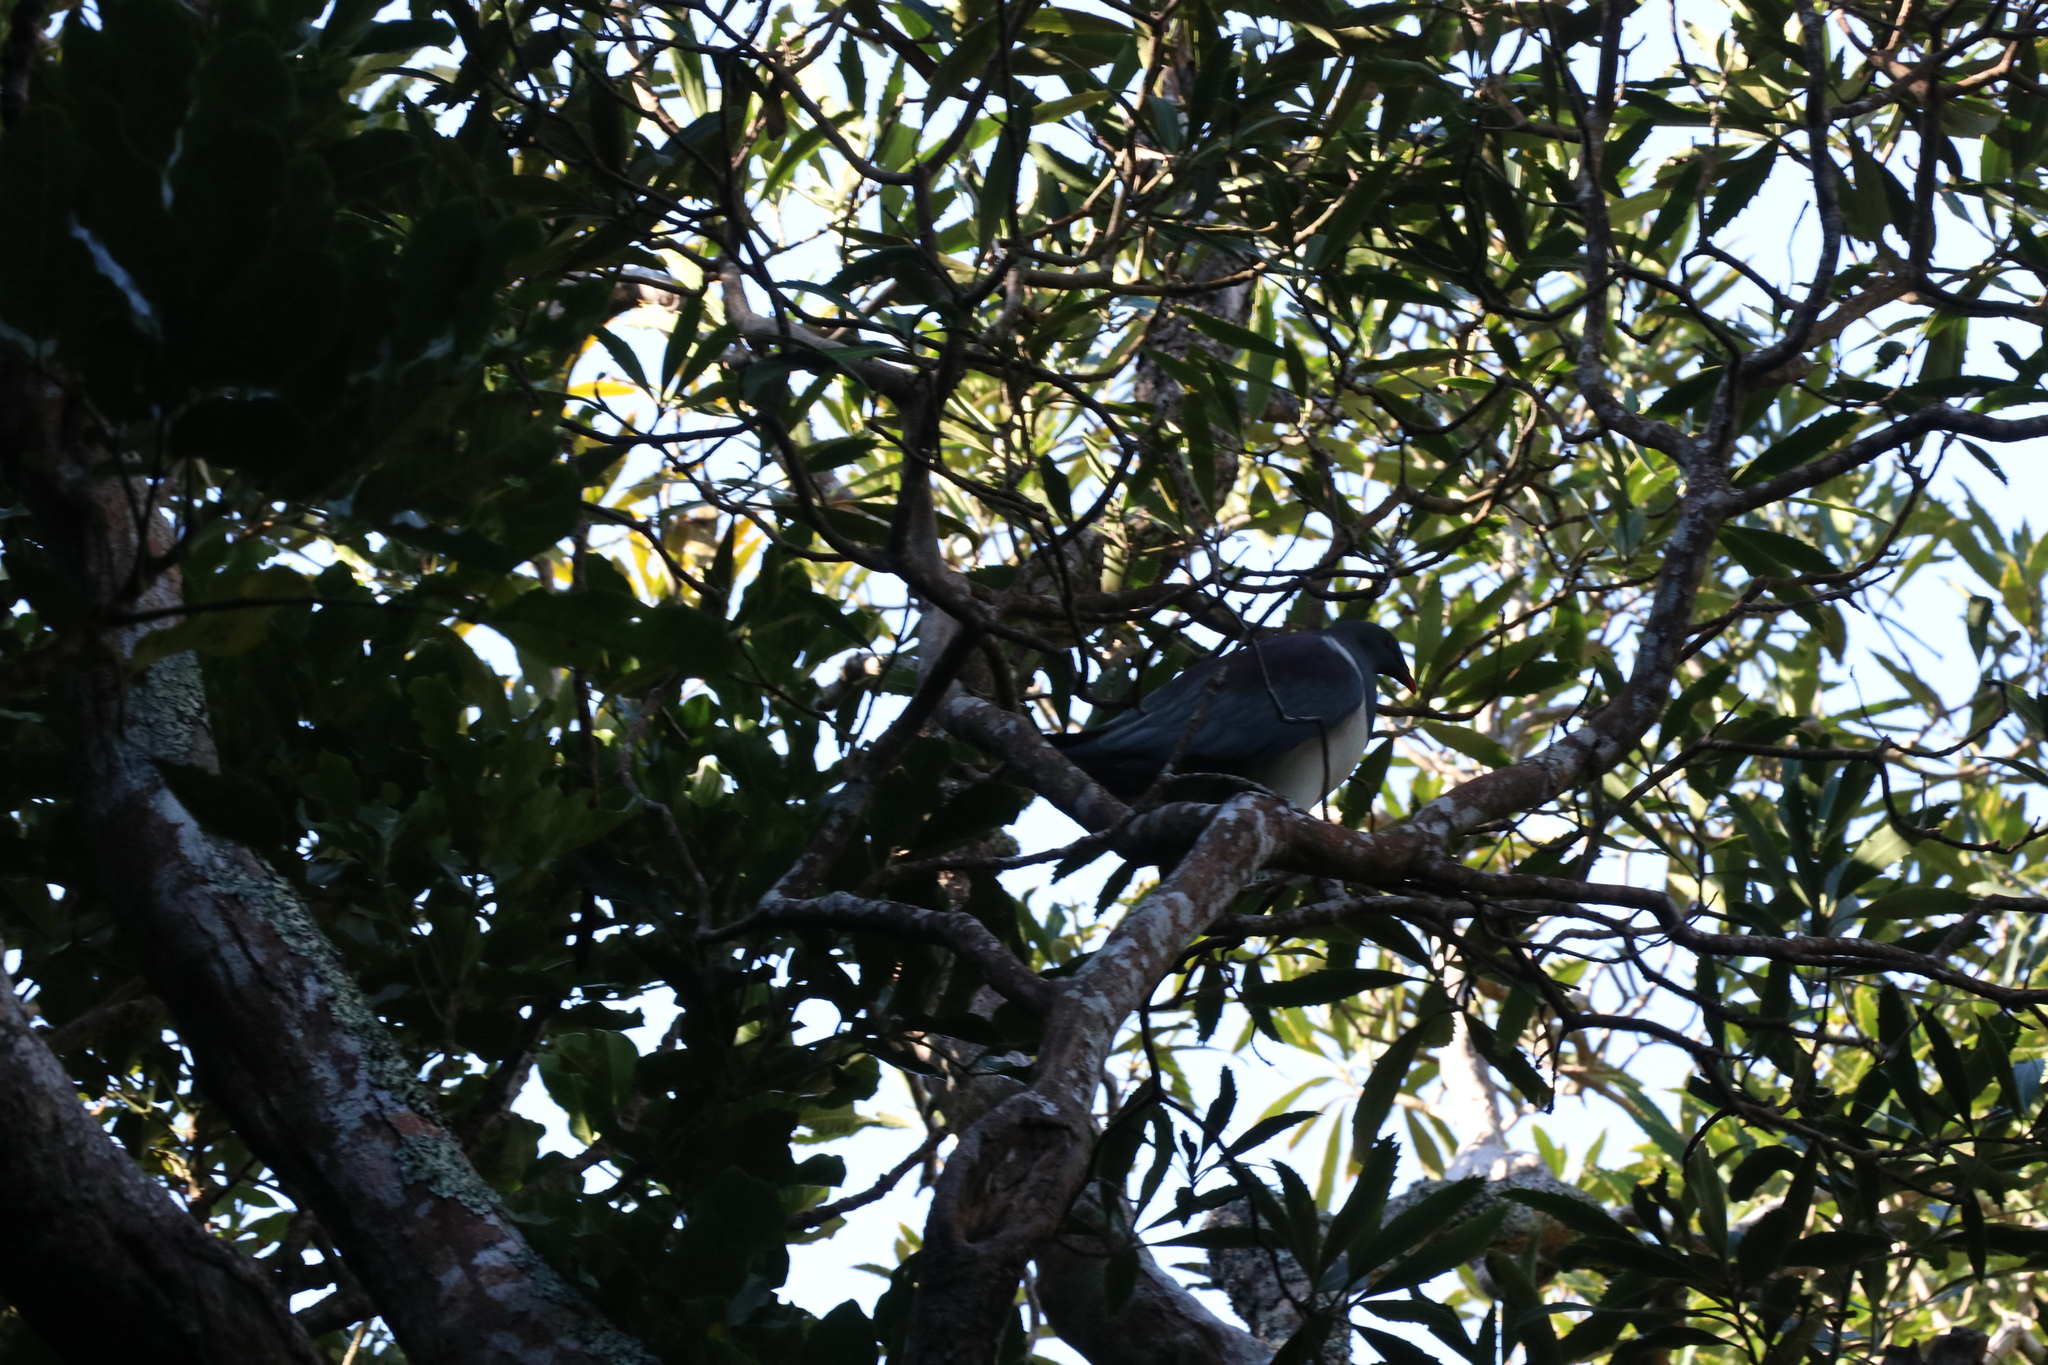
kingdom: Animalia
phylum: Chordata
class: Aves
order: Columbiformes
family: Columbidae
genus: Hemiphaga
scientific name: Hemiphaga novaeseelandiae
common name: New zealand pigeon
